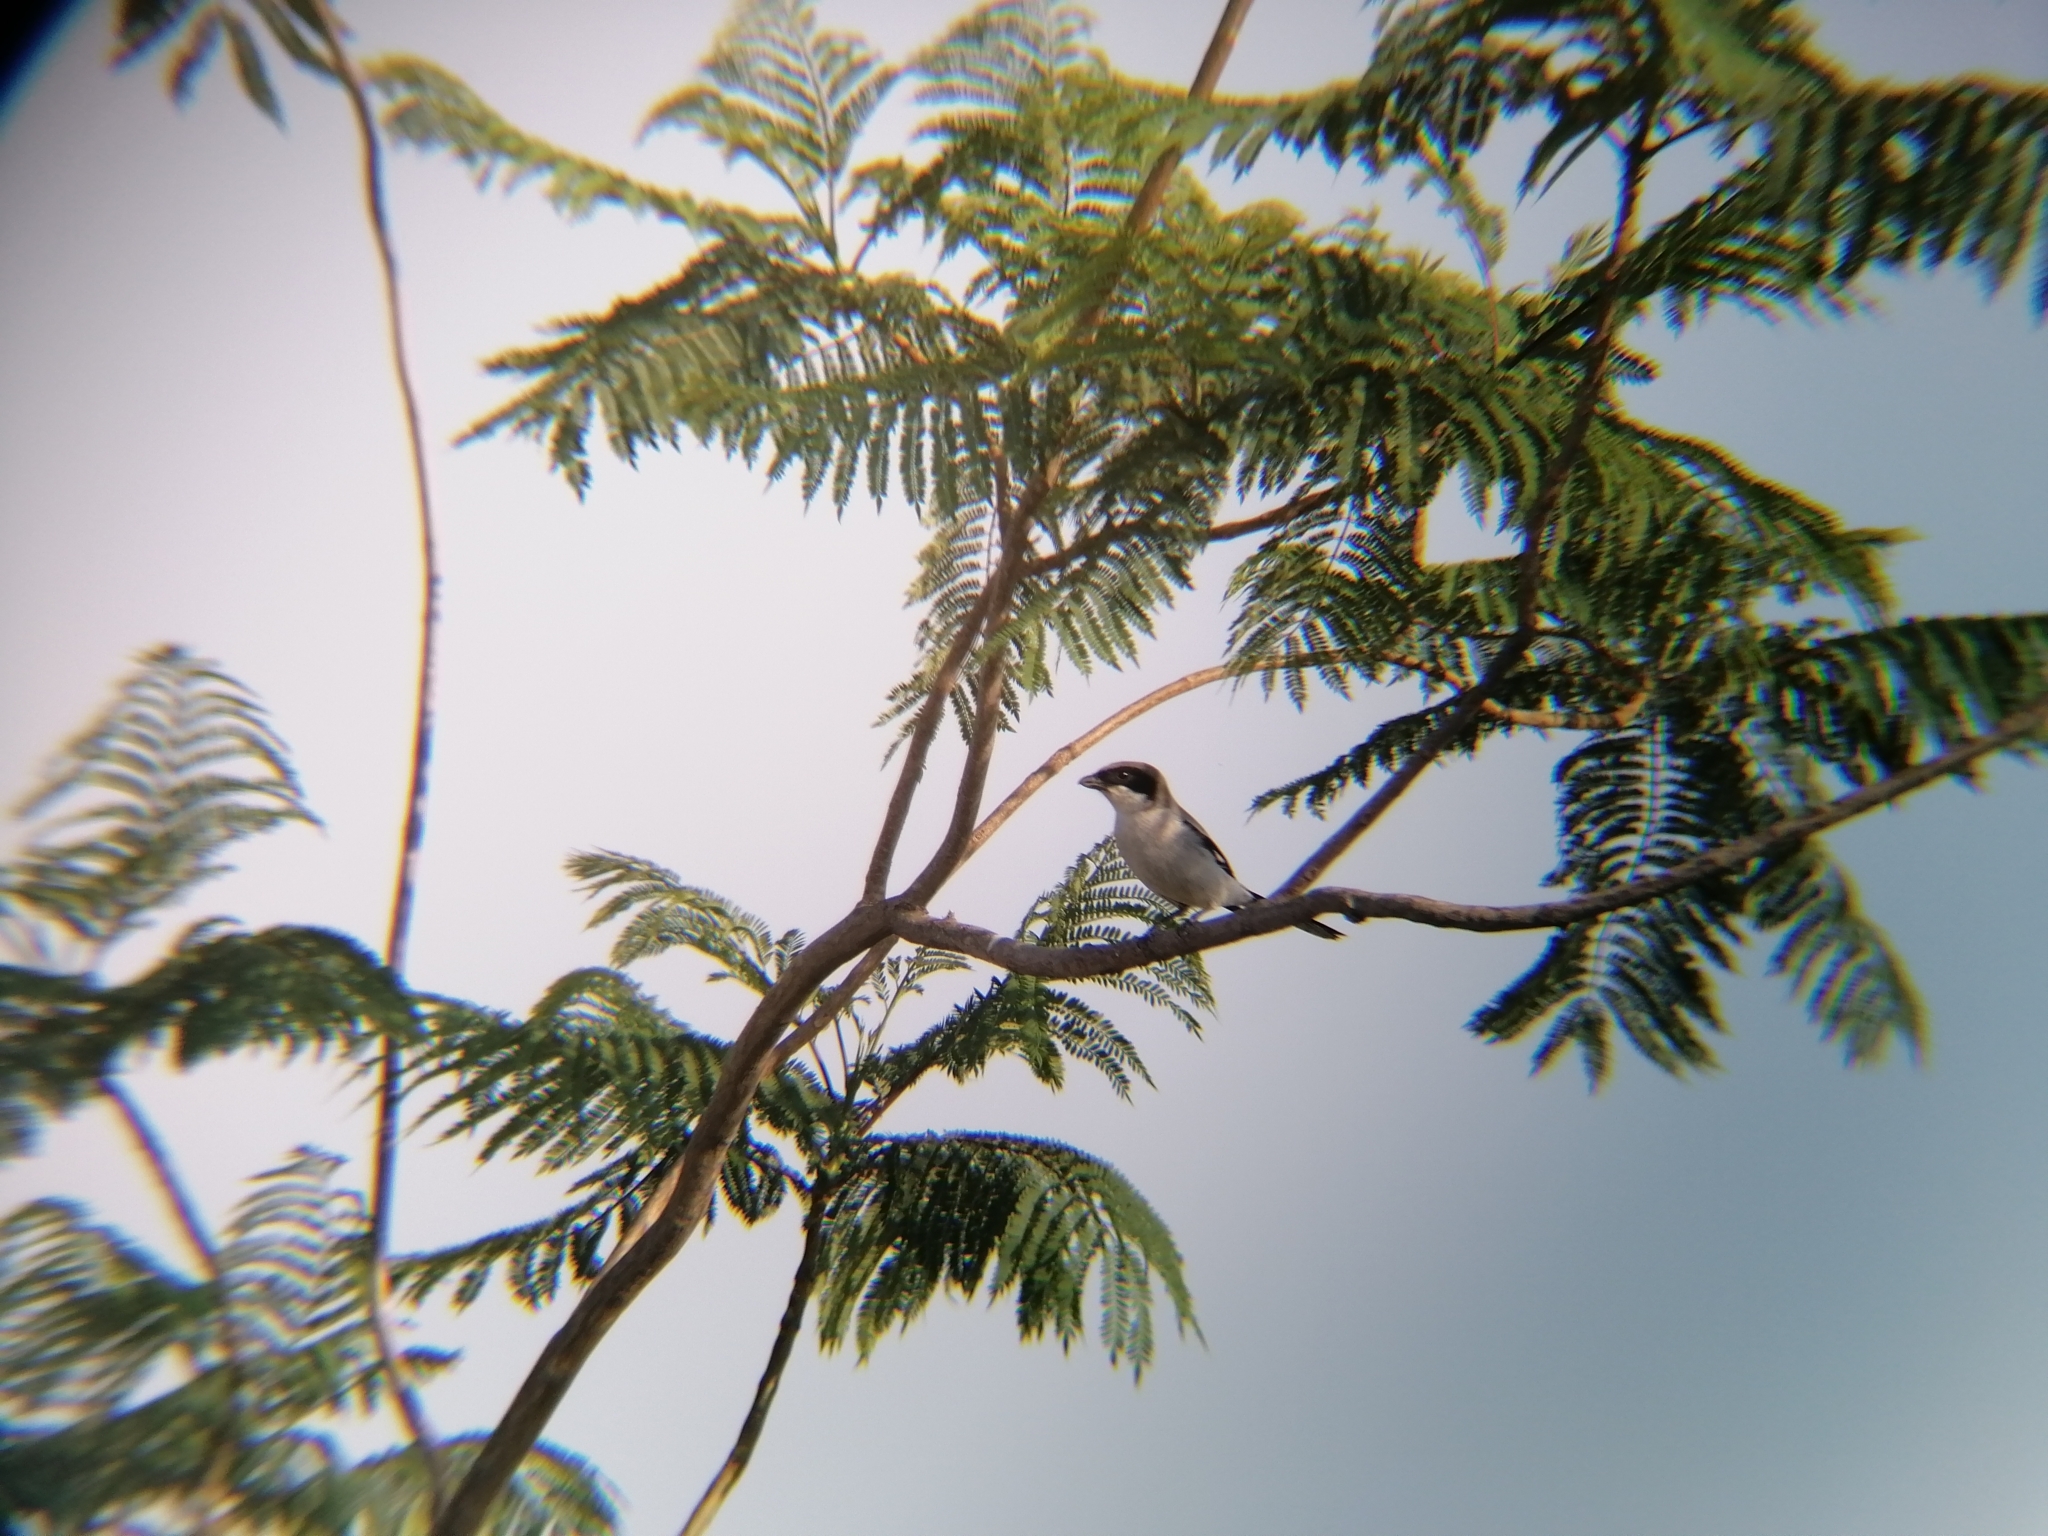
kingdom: Animalia
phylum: Chordata
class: Aves
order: Passeriformes
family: Laniidae
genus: Lanius
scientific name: Lanius ludovicianus
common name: Loggerhead shrike
